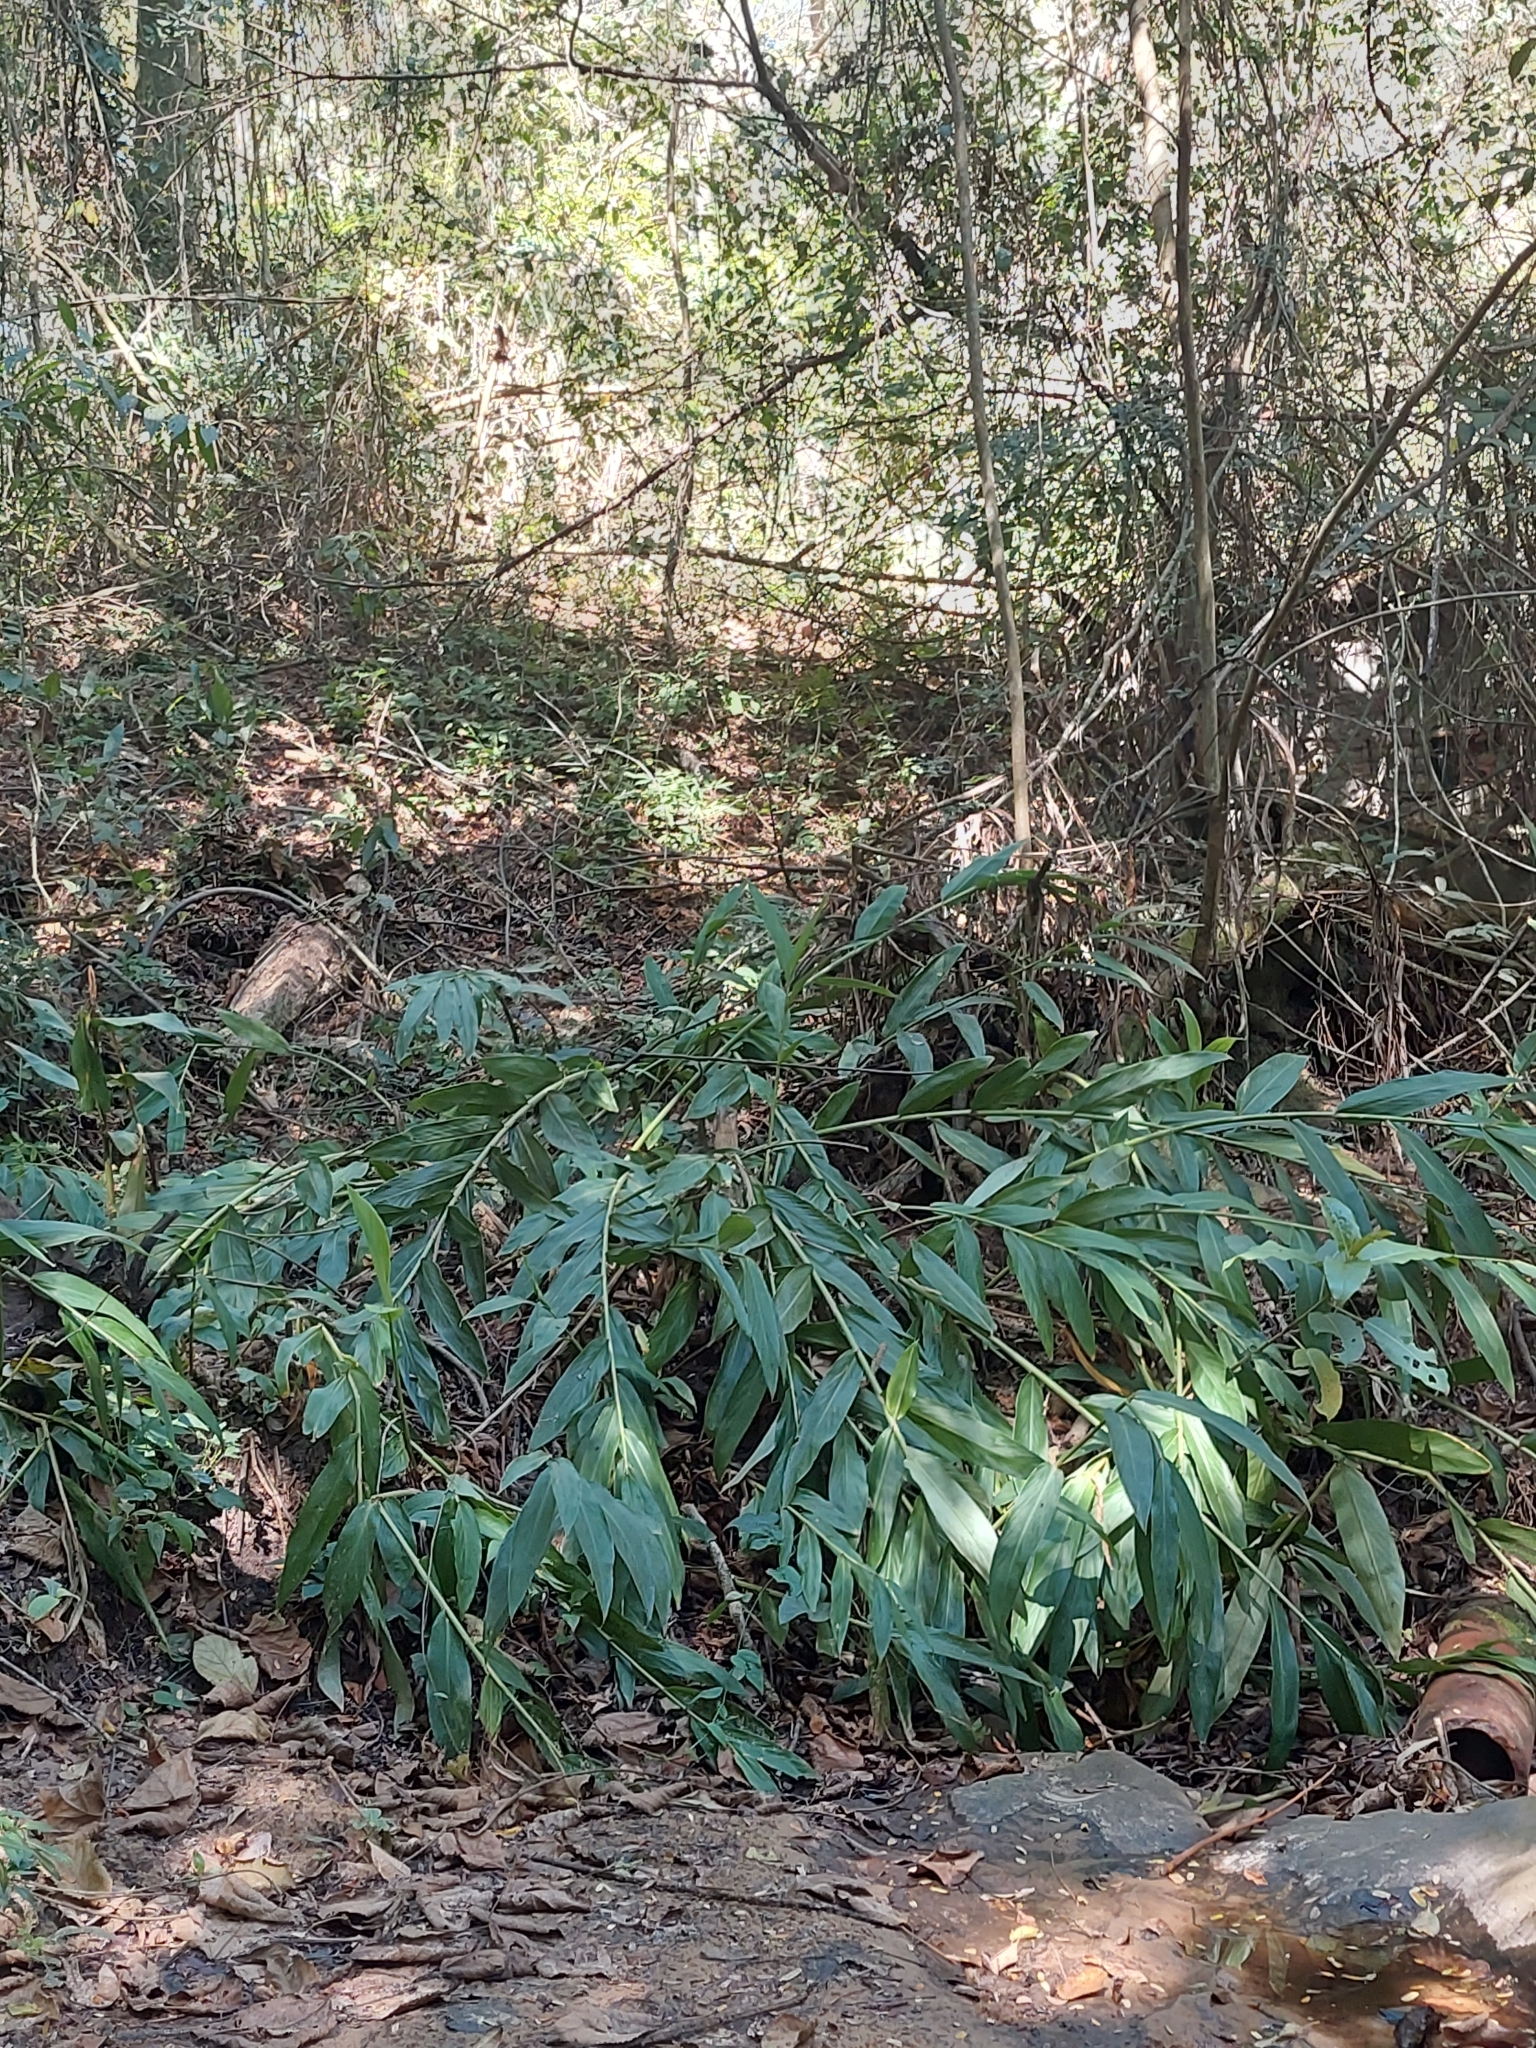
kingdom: Plantae
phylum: Tracheophyta
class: Liliopsida
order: Zingiberales
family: Zingiberaceae
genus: Hedychium
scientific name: Hedychium coronarium
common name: White garland-lily
